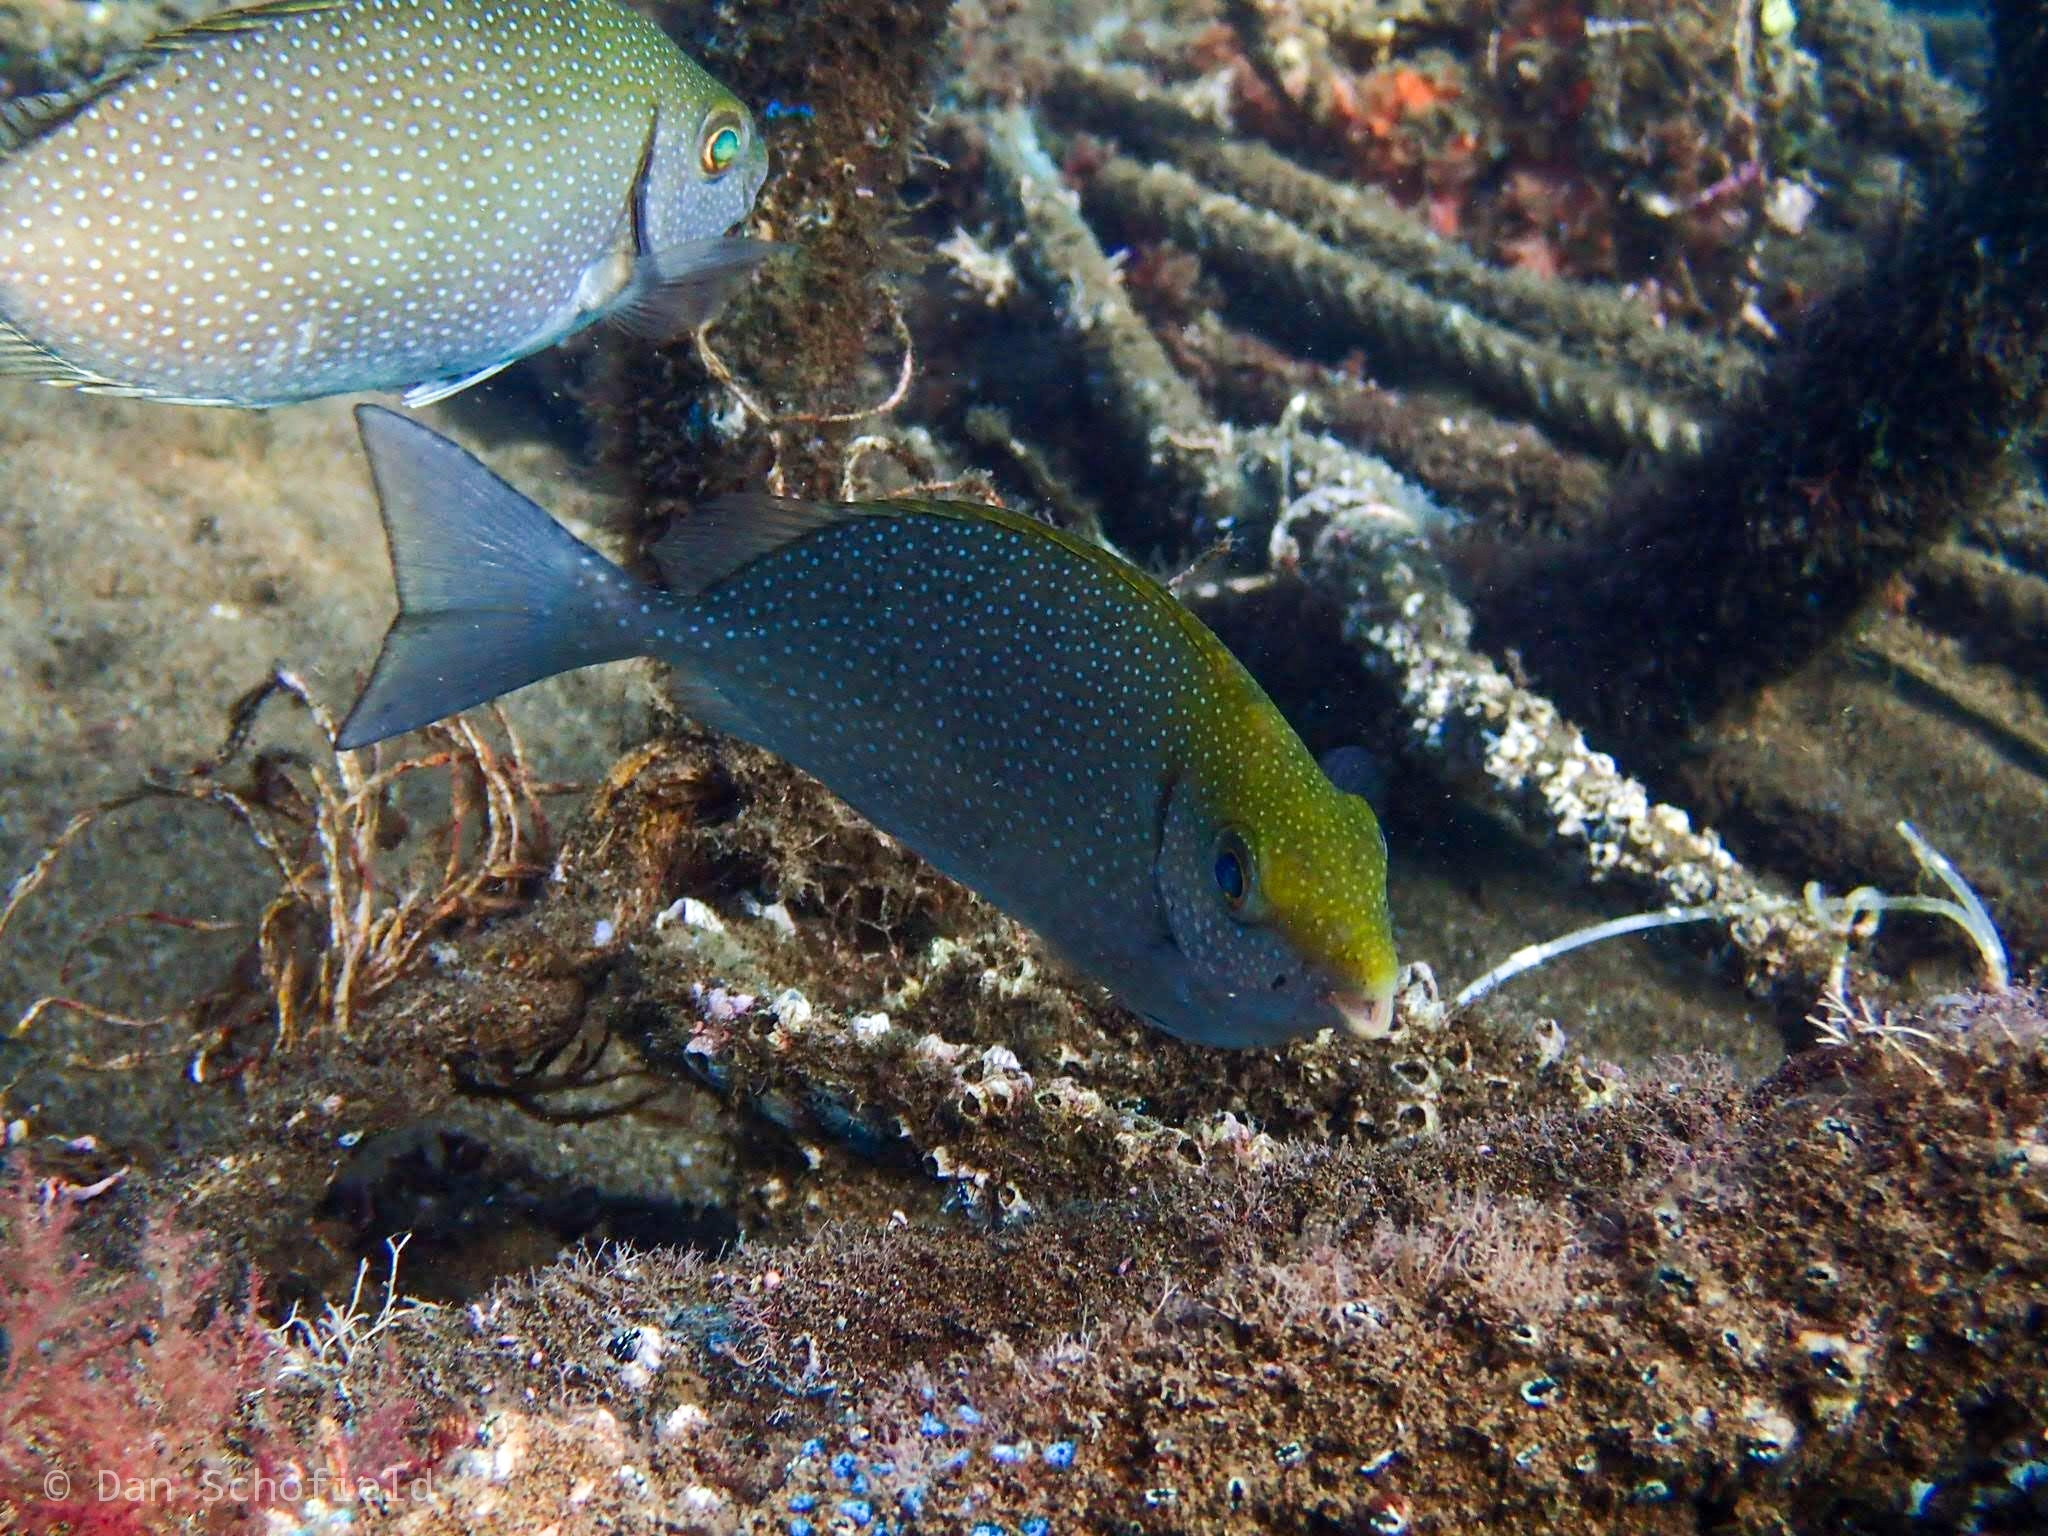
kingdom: Animalia
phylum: Chordata
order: Perciformes
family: Siganidae
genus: Siganus
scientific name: Siganus fuscescens
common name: Dusky rabbitfish
